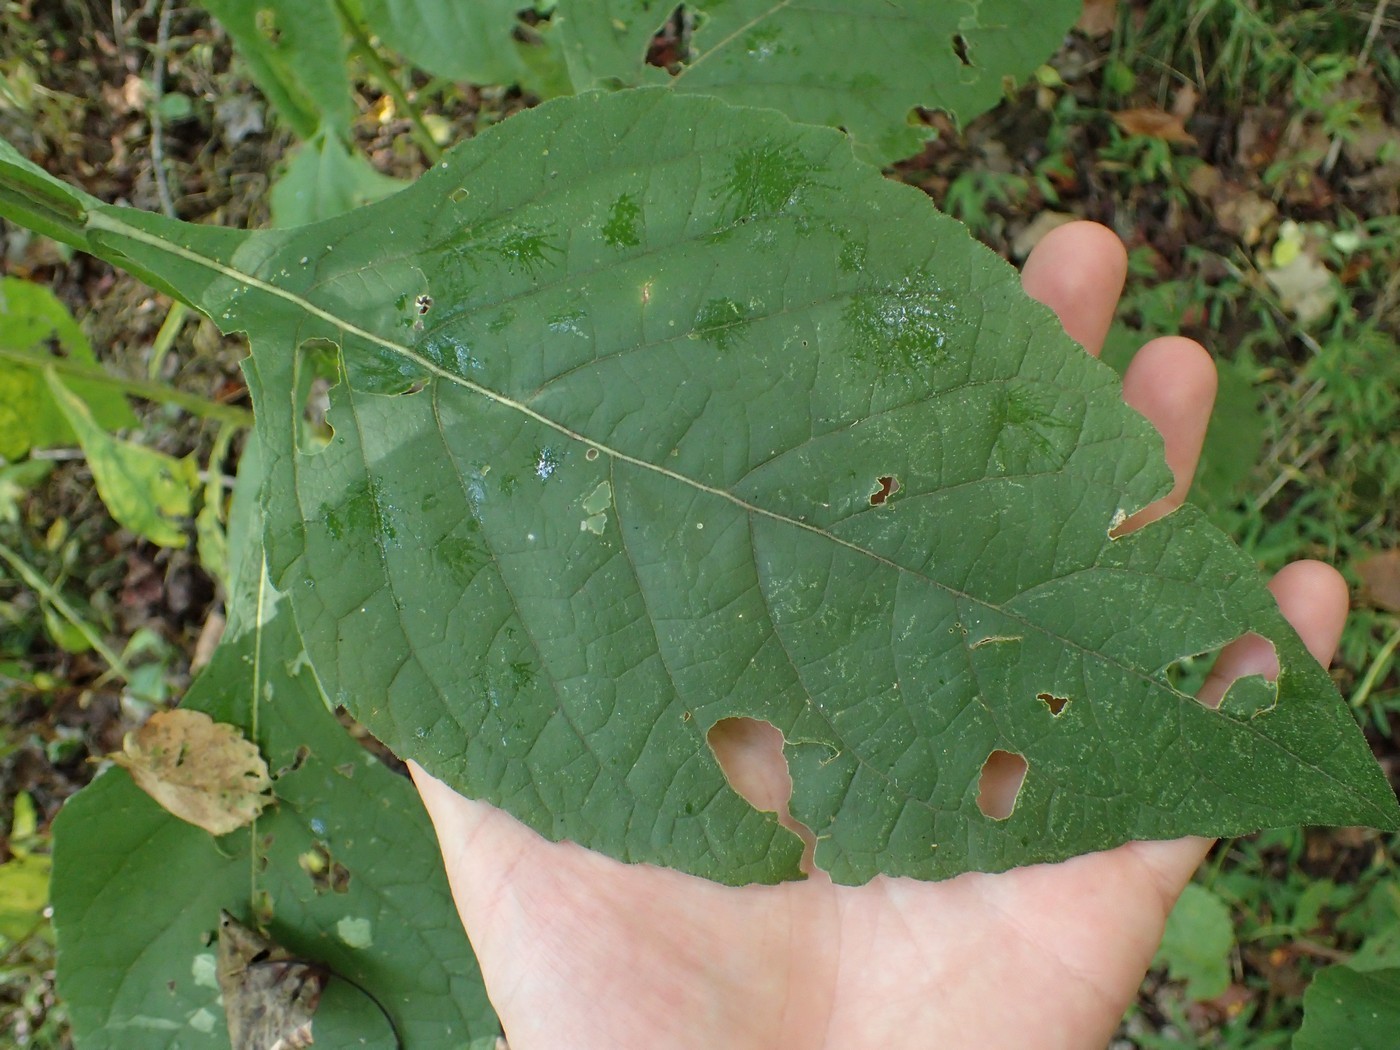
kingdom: Plantae
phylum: Tracheophyta
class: Magnoliopsida
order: Asterales
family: Asteraceae
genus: Verbesina
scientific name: Verbesina virginica
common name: Frostweed
